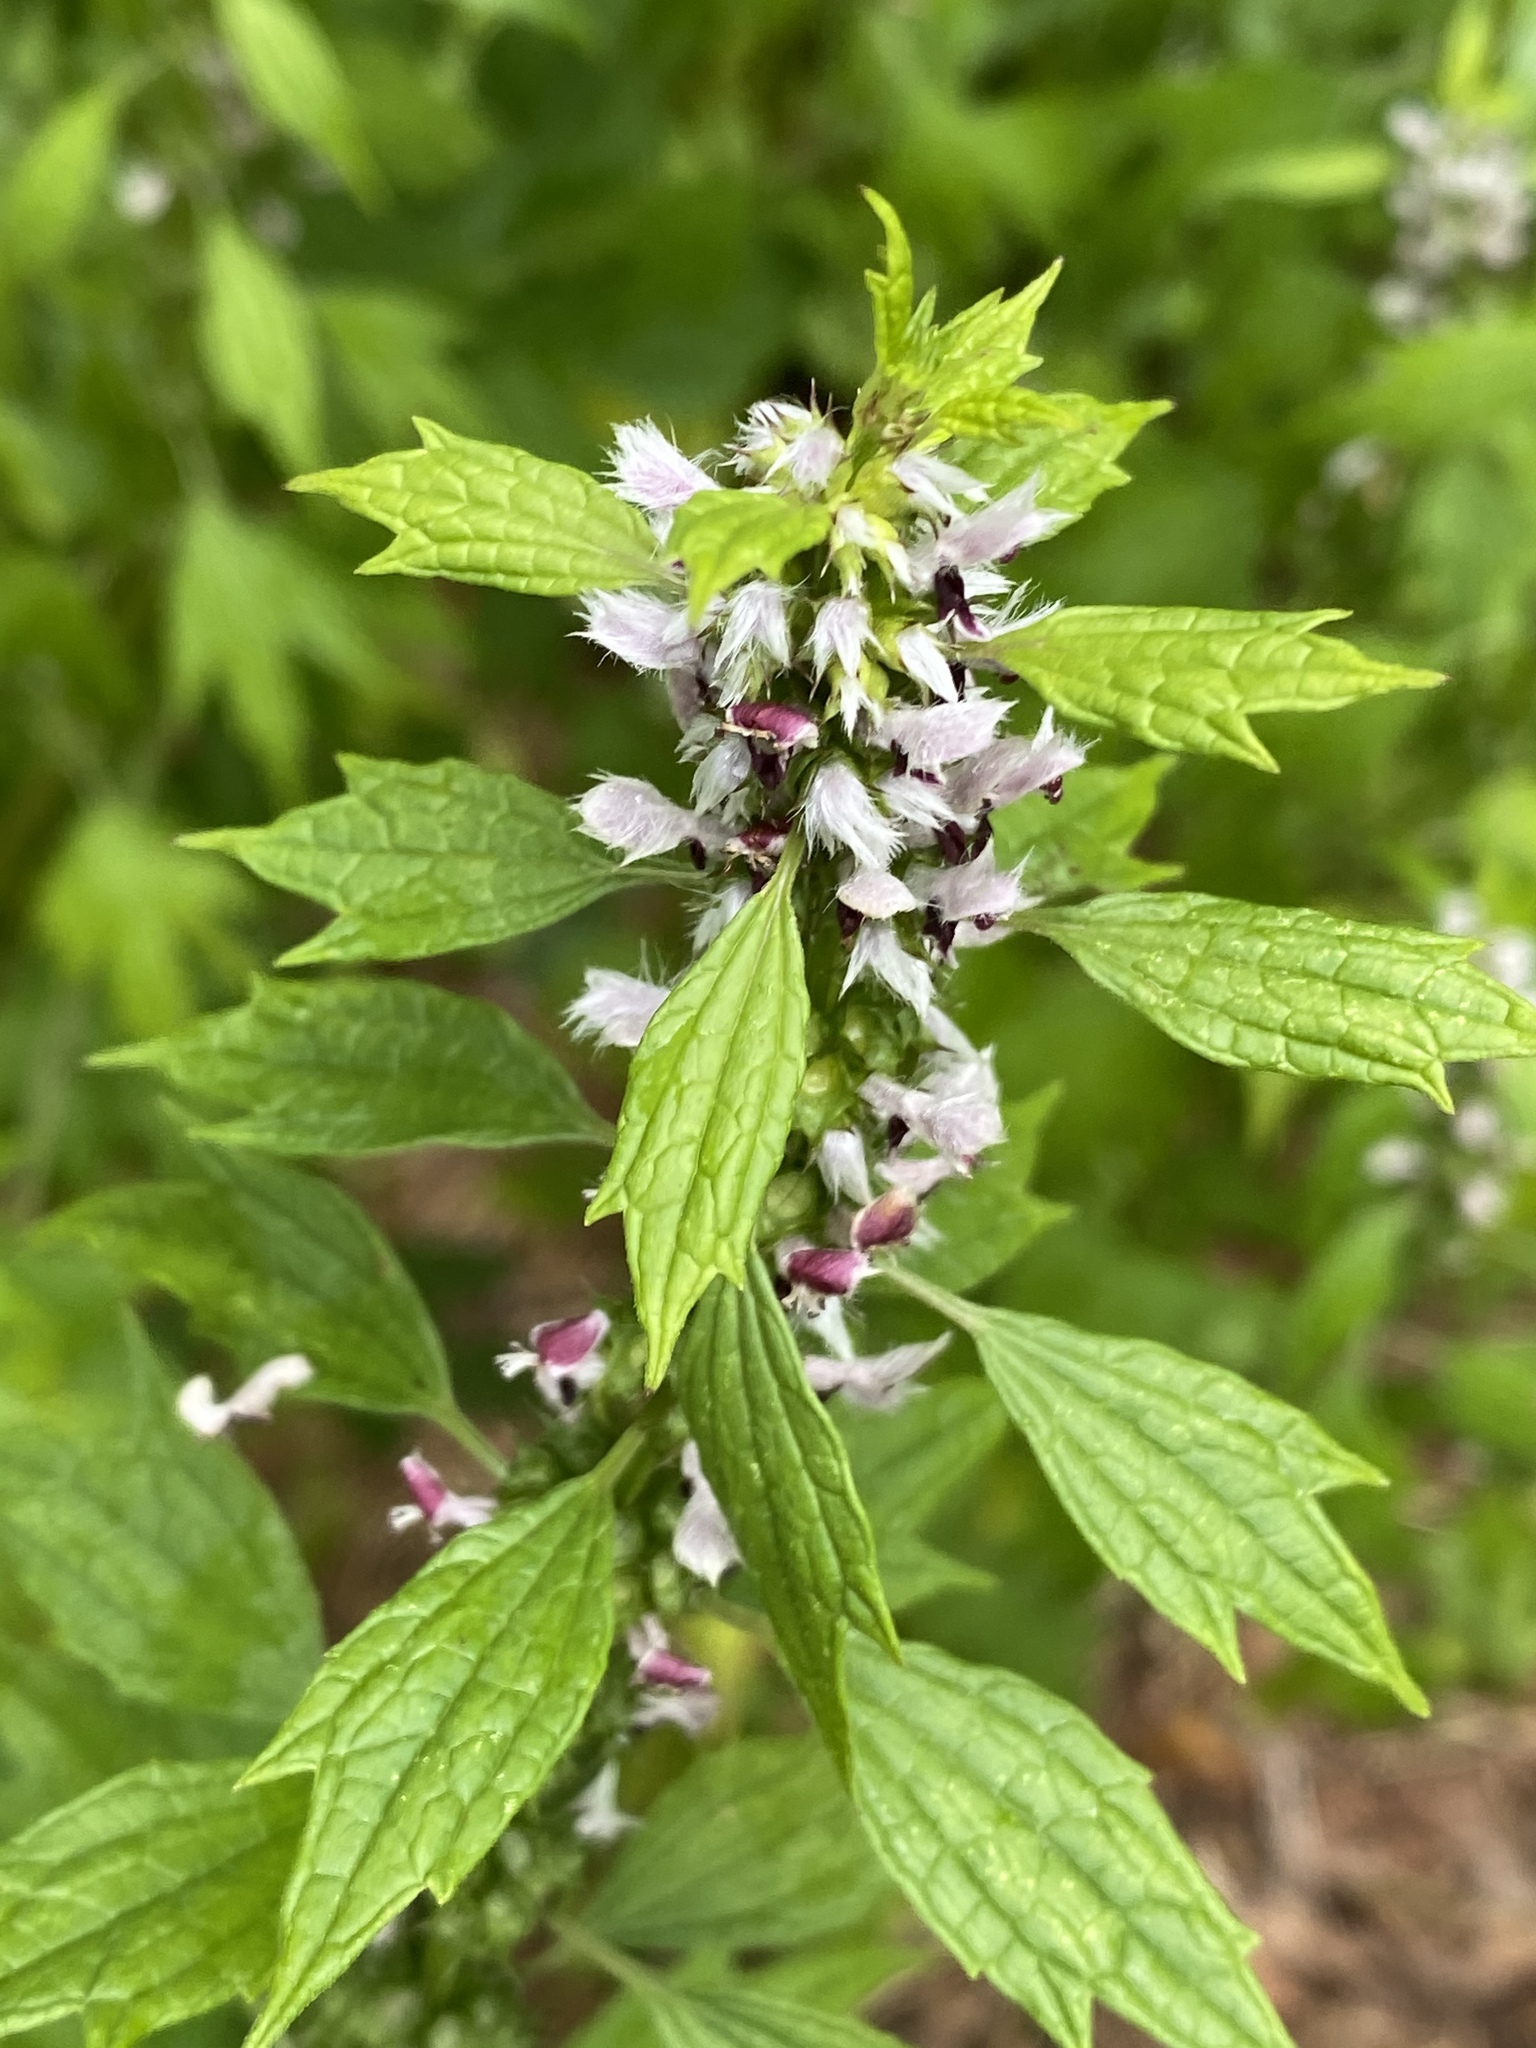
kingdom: Plantae
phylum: Tracheophyta
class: Magnoliopsida
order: Lamiales
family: Lamiaceae
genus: Leonurus
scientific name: Leonurus cardiaca
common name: Motherwort
